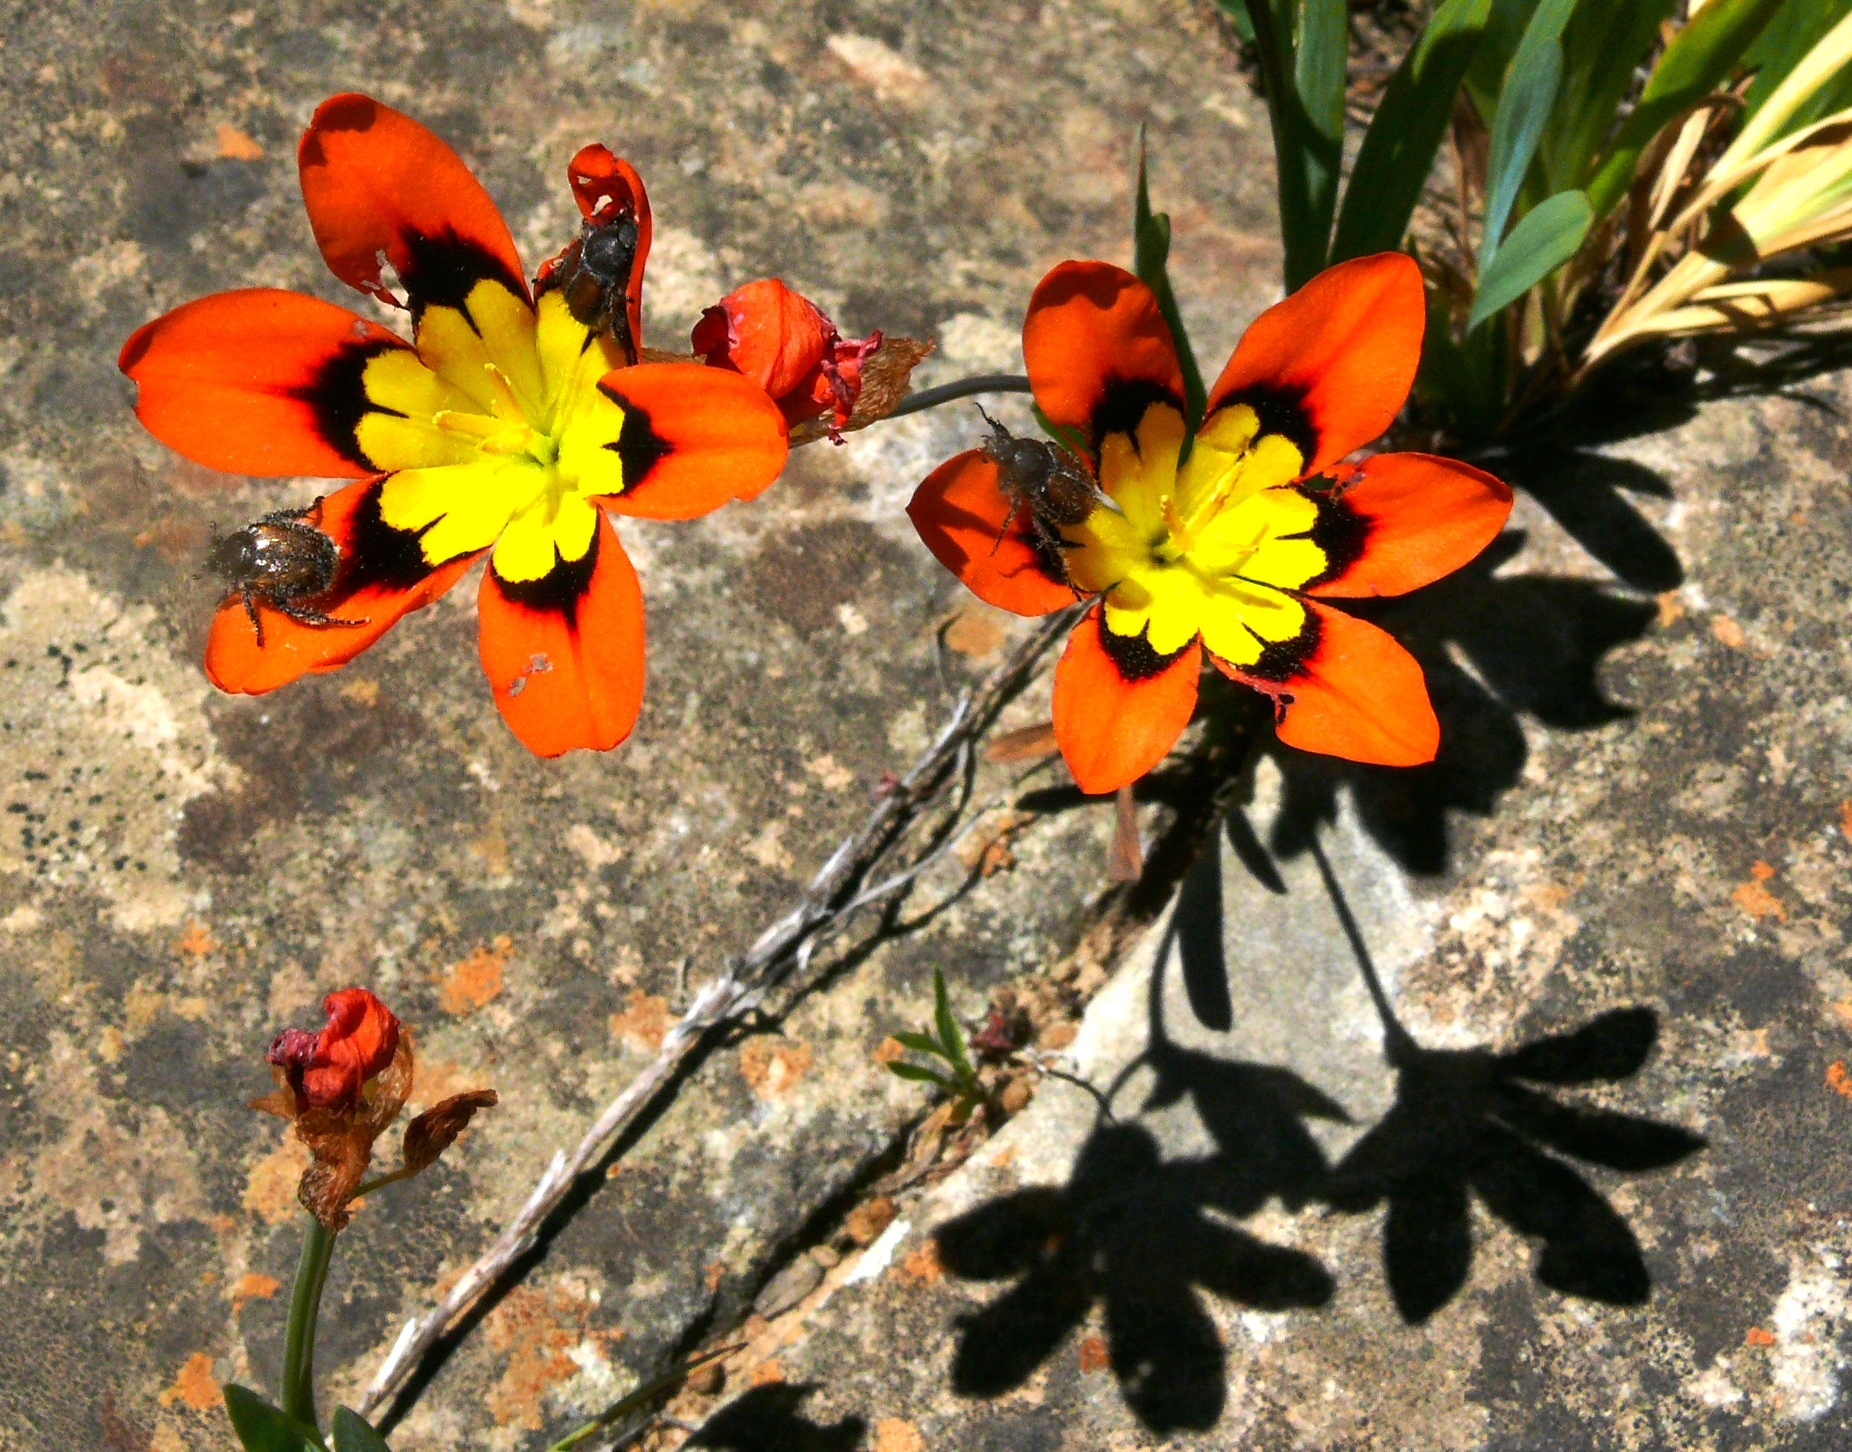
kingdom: Plantae
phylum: Tracheophyta
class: Liliopsida
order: Asparagales
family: Iridaceae
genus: Sparaxis
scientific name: Sparaxis tricolor
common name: Wandflower
